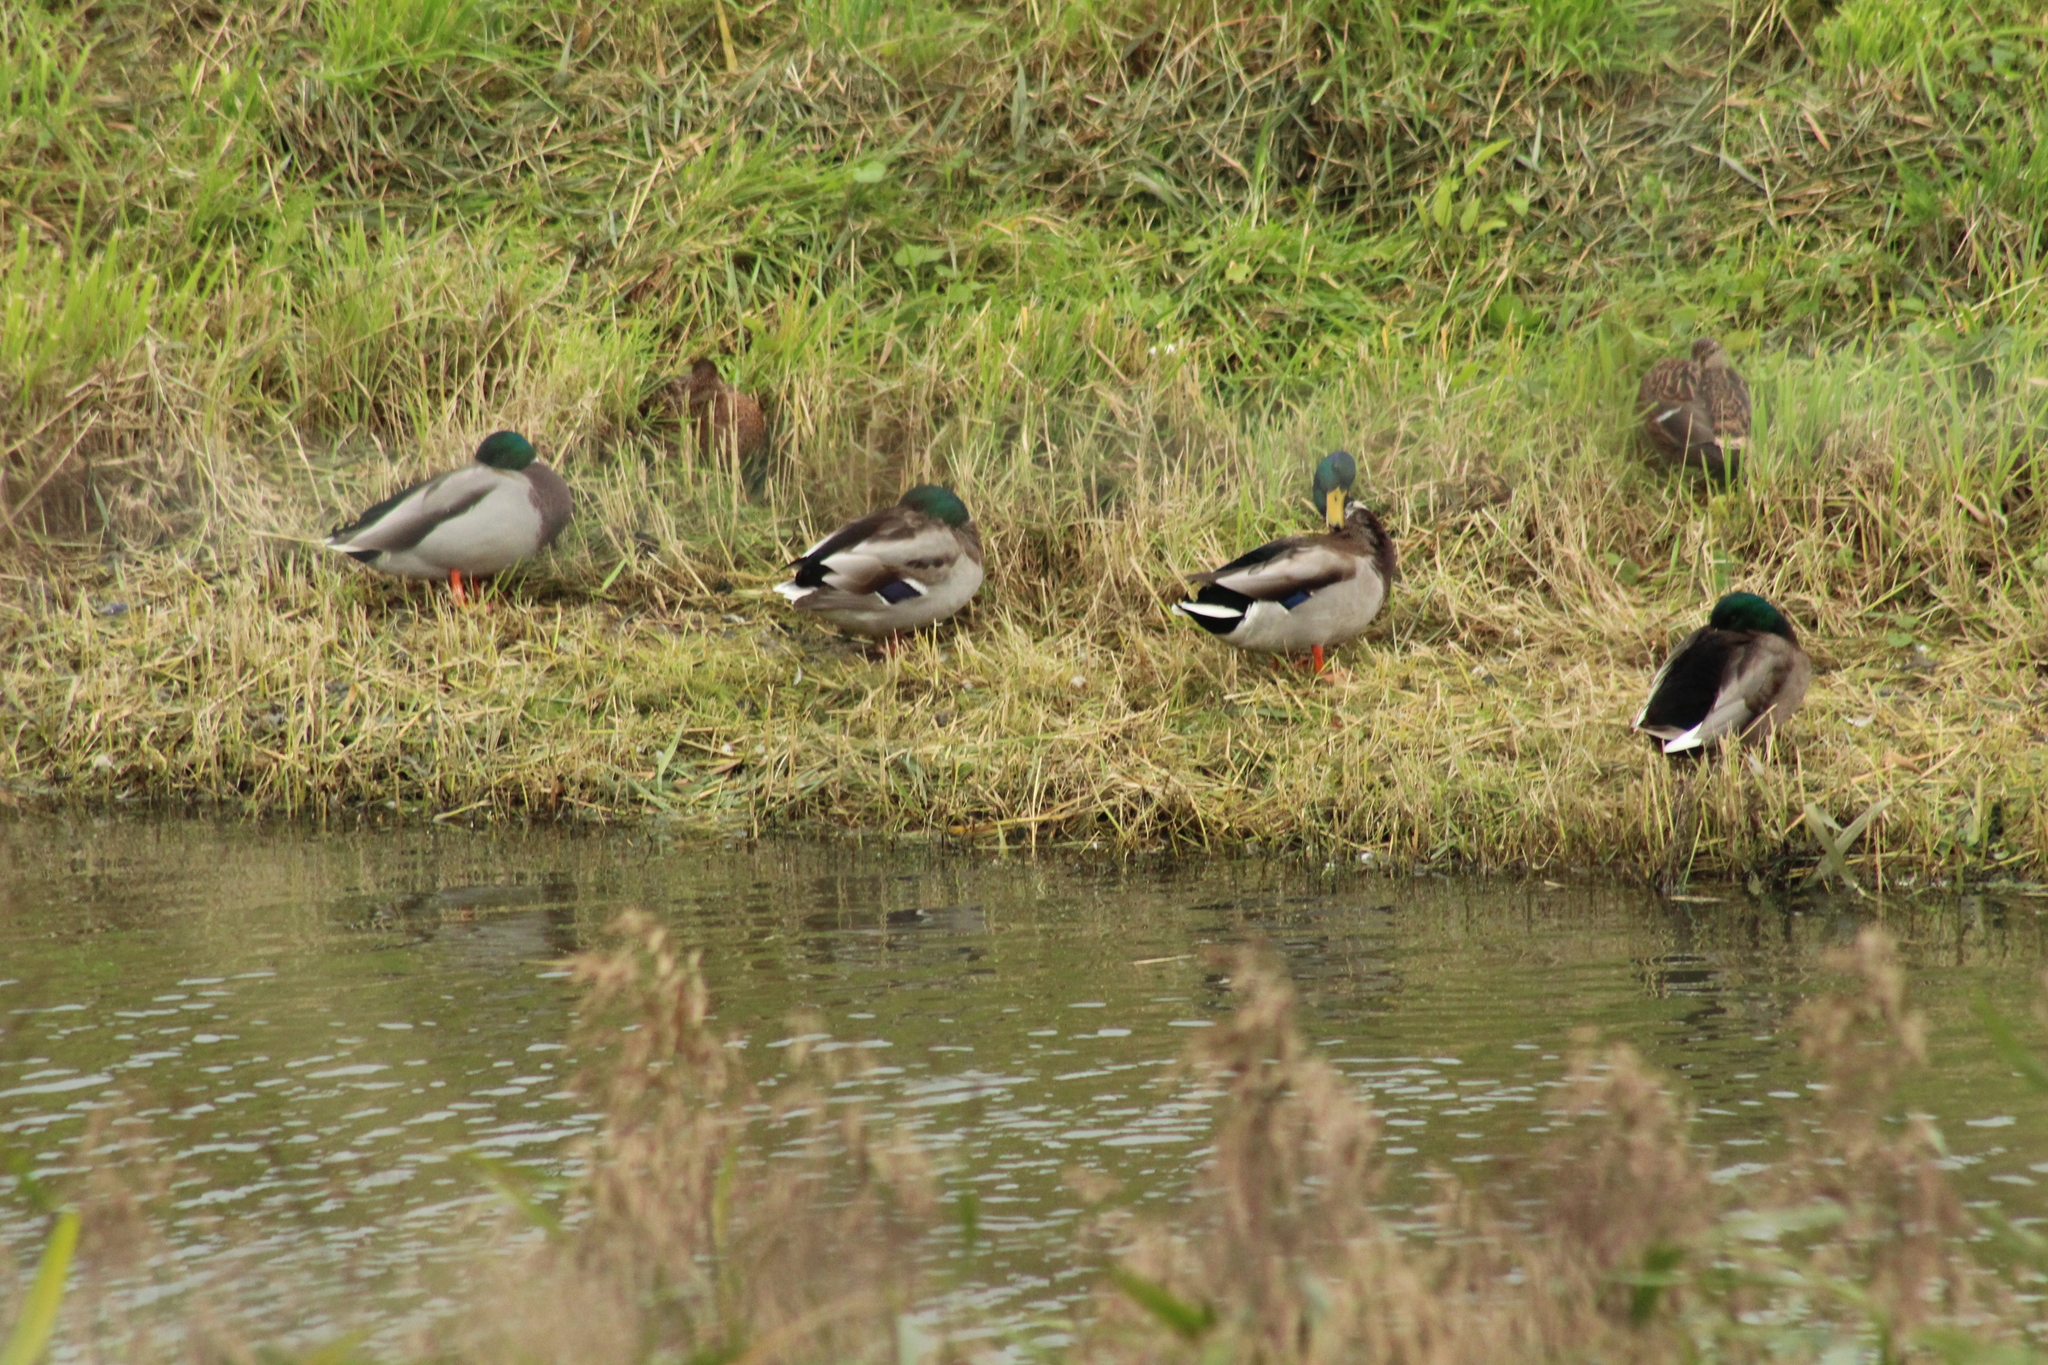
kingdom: Animalia
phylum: Chordata
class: Aves
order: Anseriformes
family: Anatidae
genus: Anas
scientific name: Anas platyrhynchos
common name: Mallard
